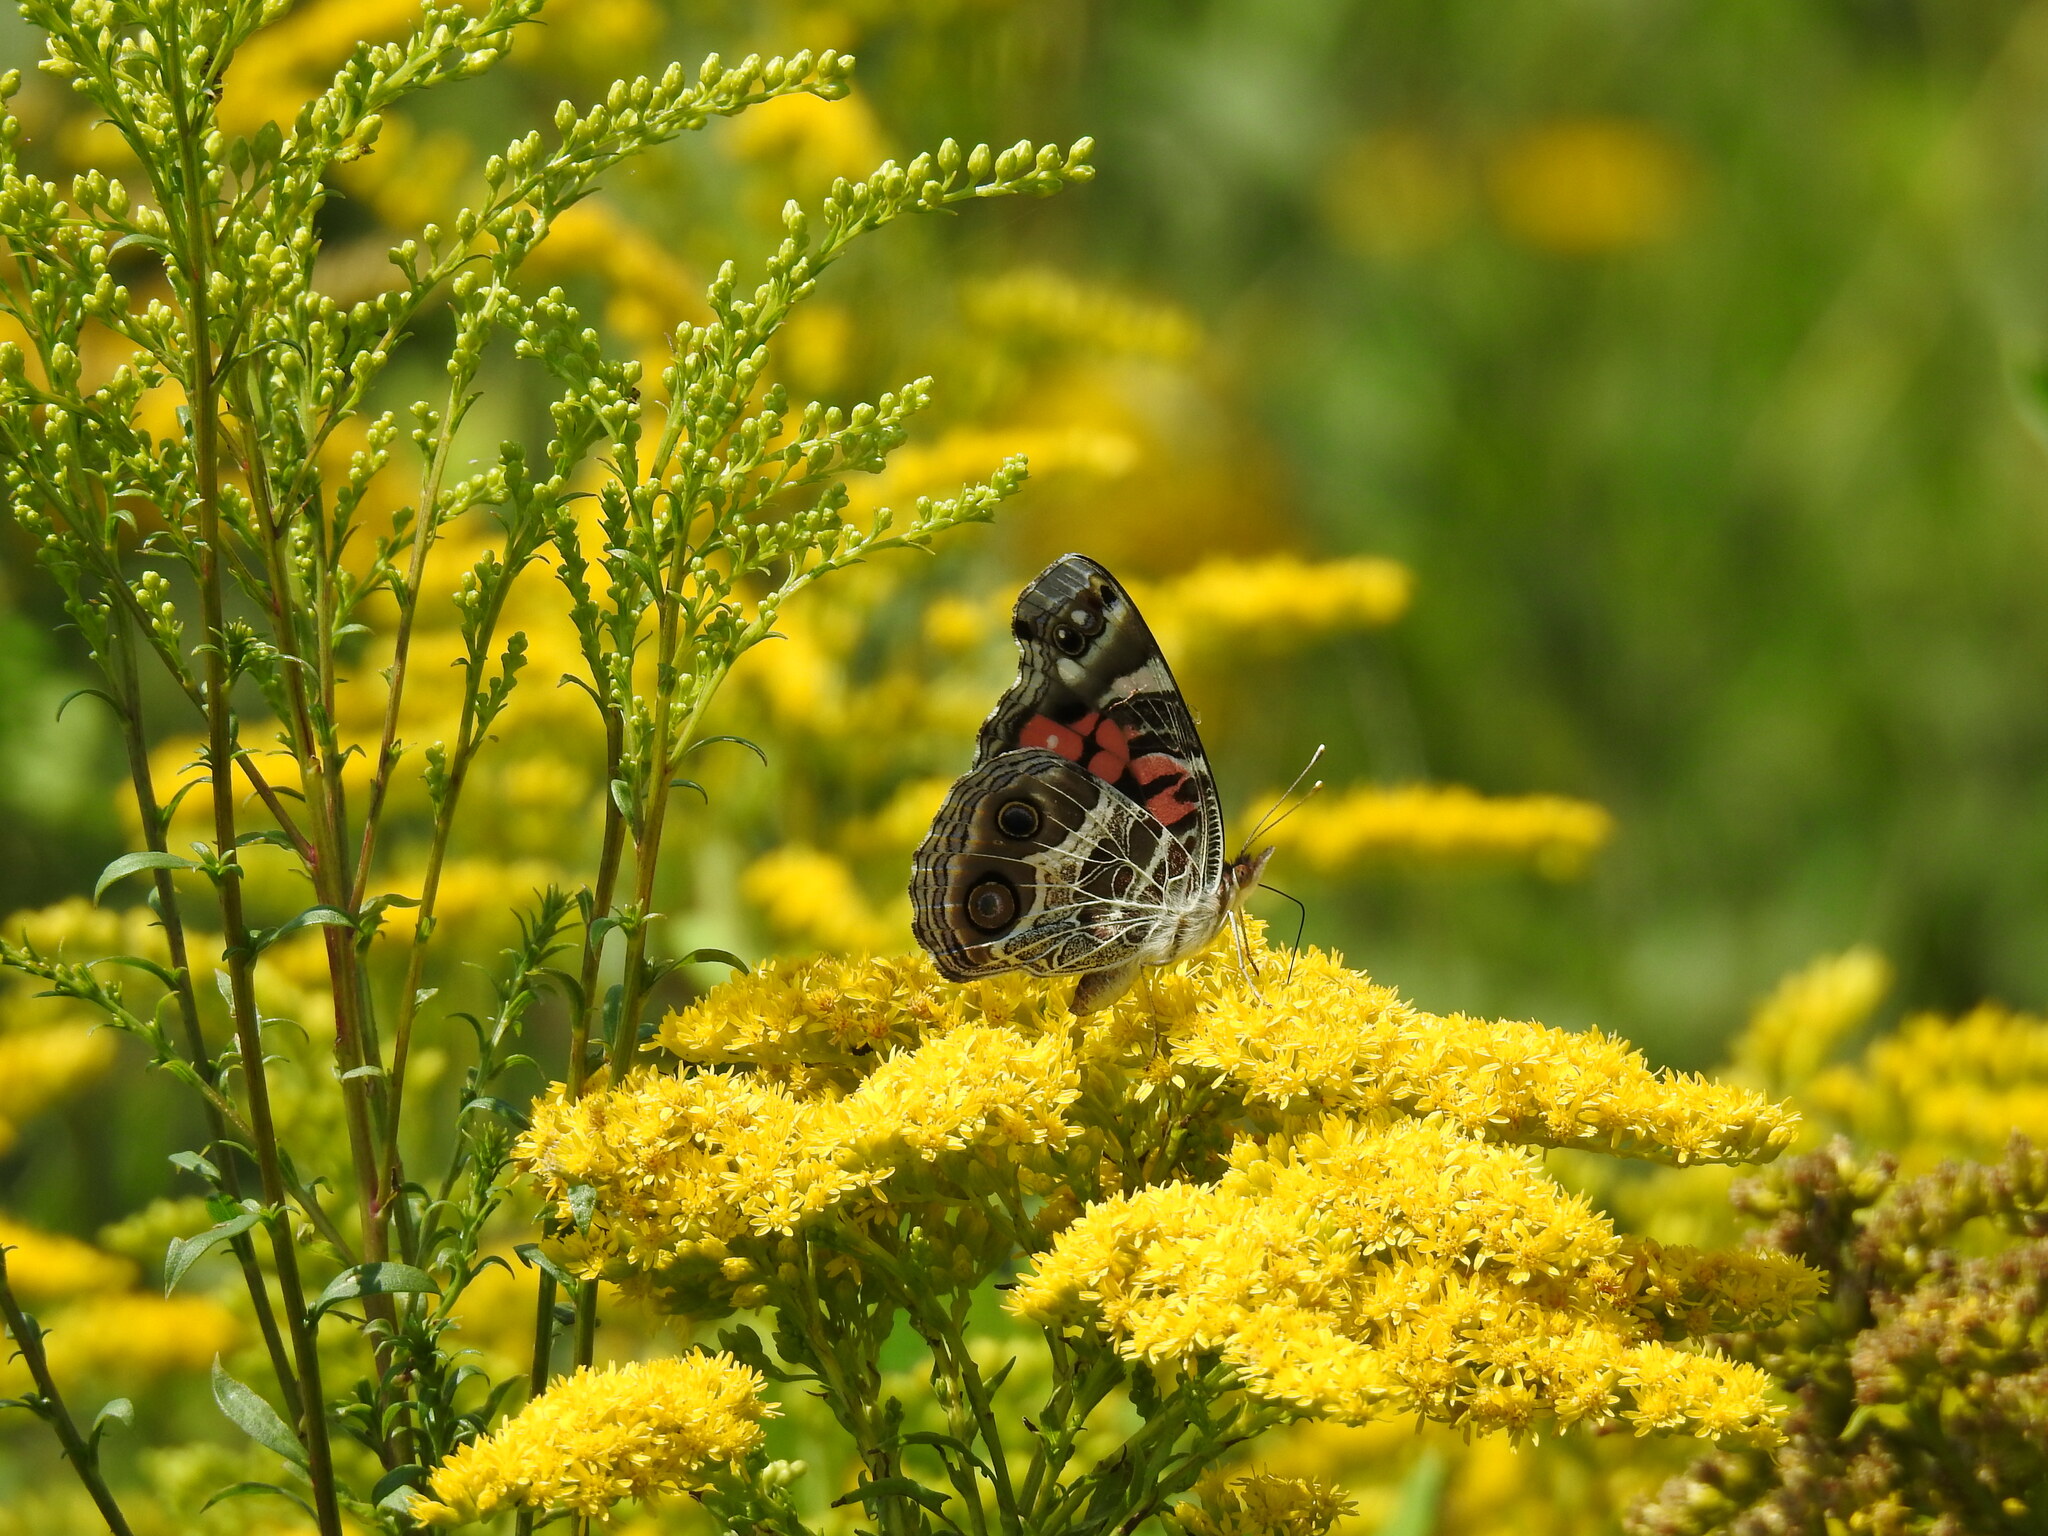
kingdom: Animalia
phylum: Arthropoda
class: Insecta
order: Lepidoptera
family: Nymphalidae
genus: Vanessa
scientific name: Vanessa virginiensis
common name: American lady
